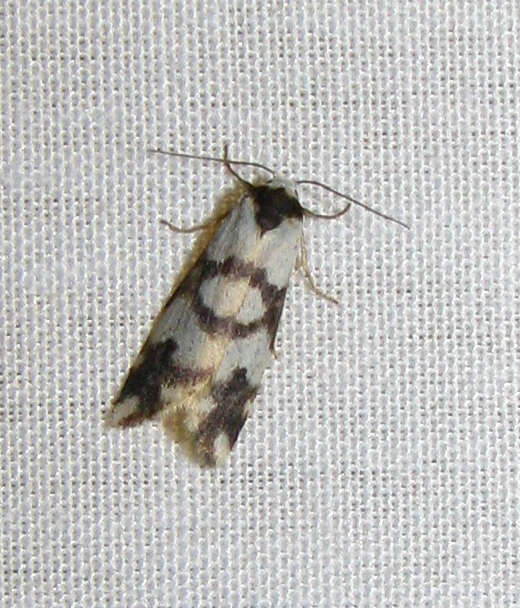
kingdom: Animalia
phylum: Arthropoda
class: Insecta
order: Lepidoptera
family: Erebidae
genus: Thallarcha
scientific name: Thallarcha albicollis
